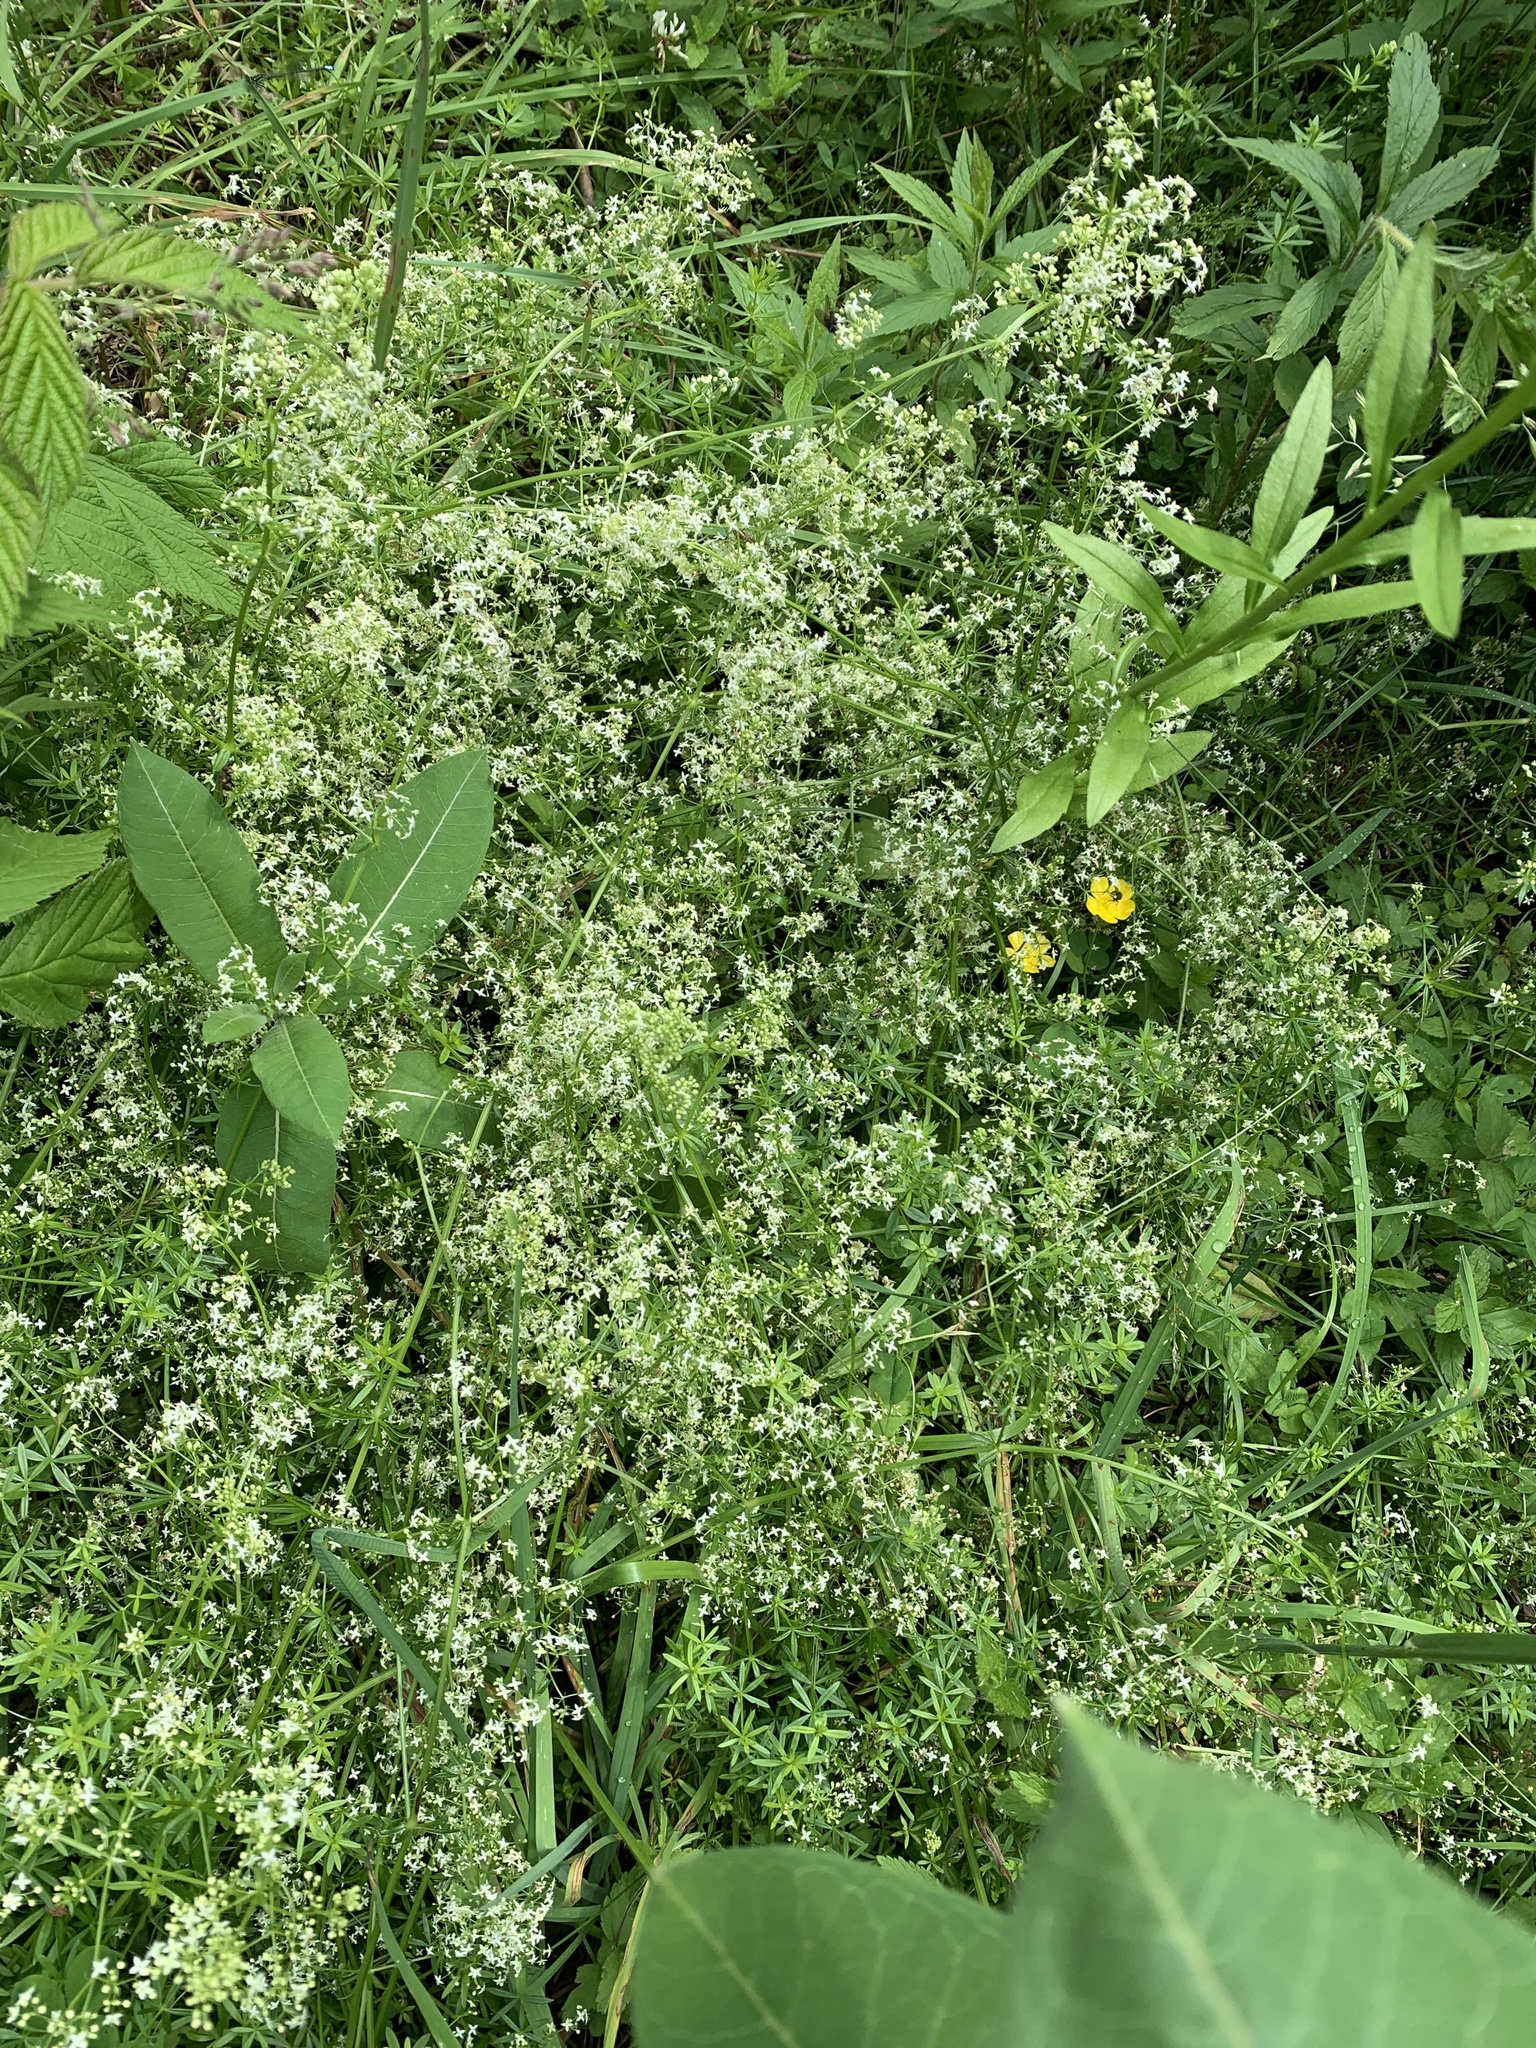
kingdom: Plantae
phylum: Tracheophyta
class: Magnoliopsida
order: Gentianales
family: Rubiaceae
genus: Galium
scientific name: Galium mollugo
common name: Hedge bedstraw
